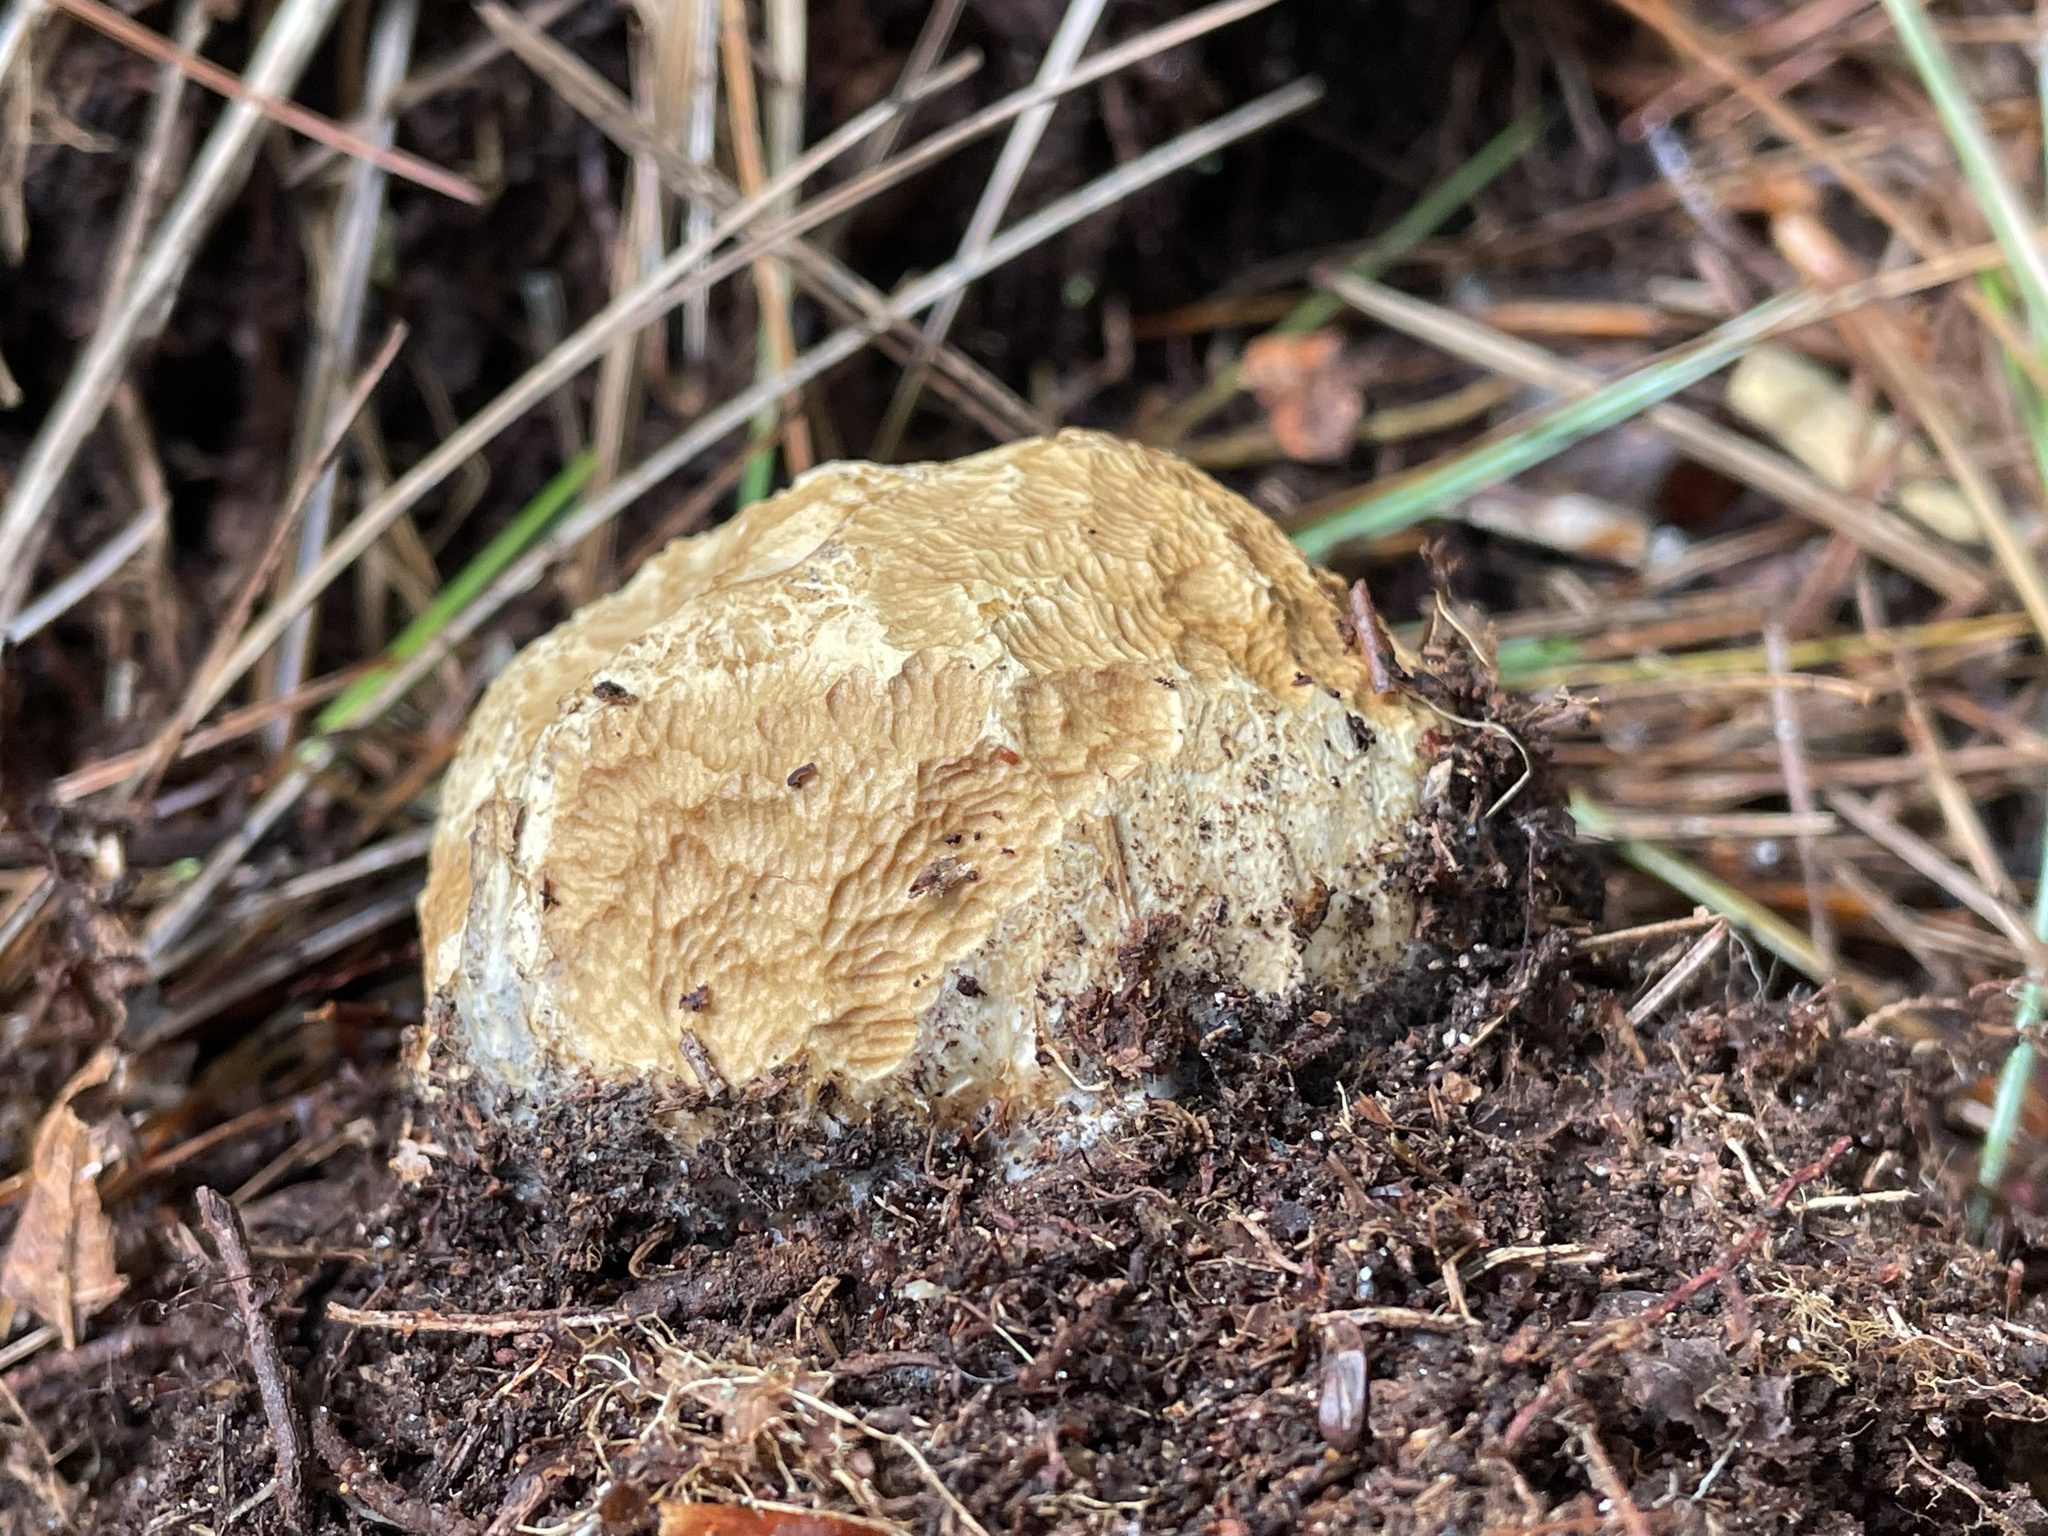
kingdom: Fungi
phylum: Basidiomycota
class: Agaricomycetes
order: Boletales
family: Sclerodermataceae
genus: Scleroderma
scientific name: Scleroderma citrinum
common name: Common earthball
